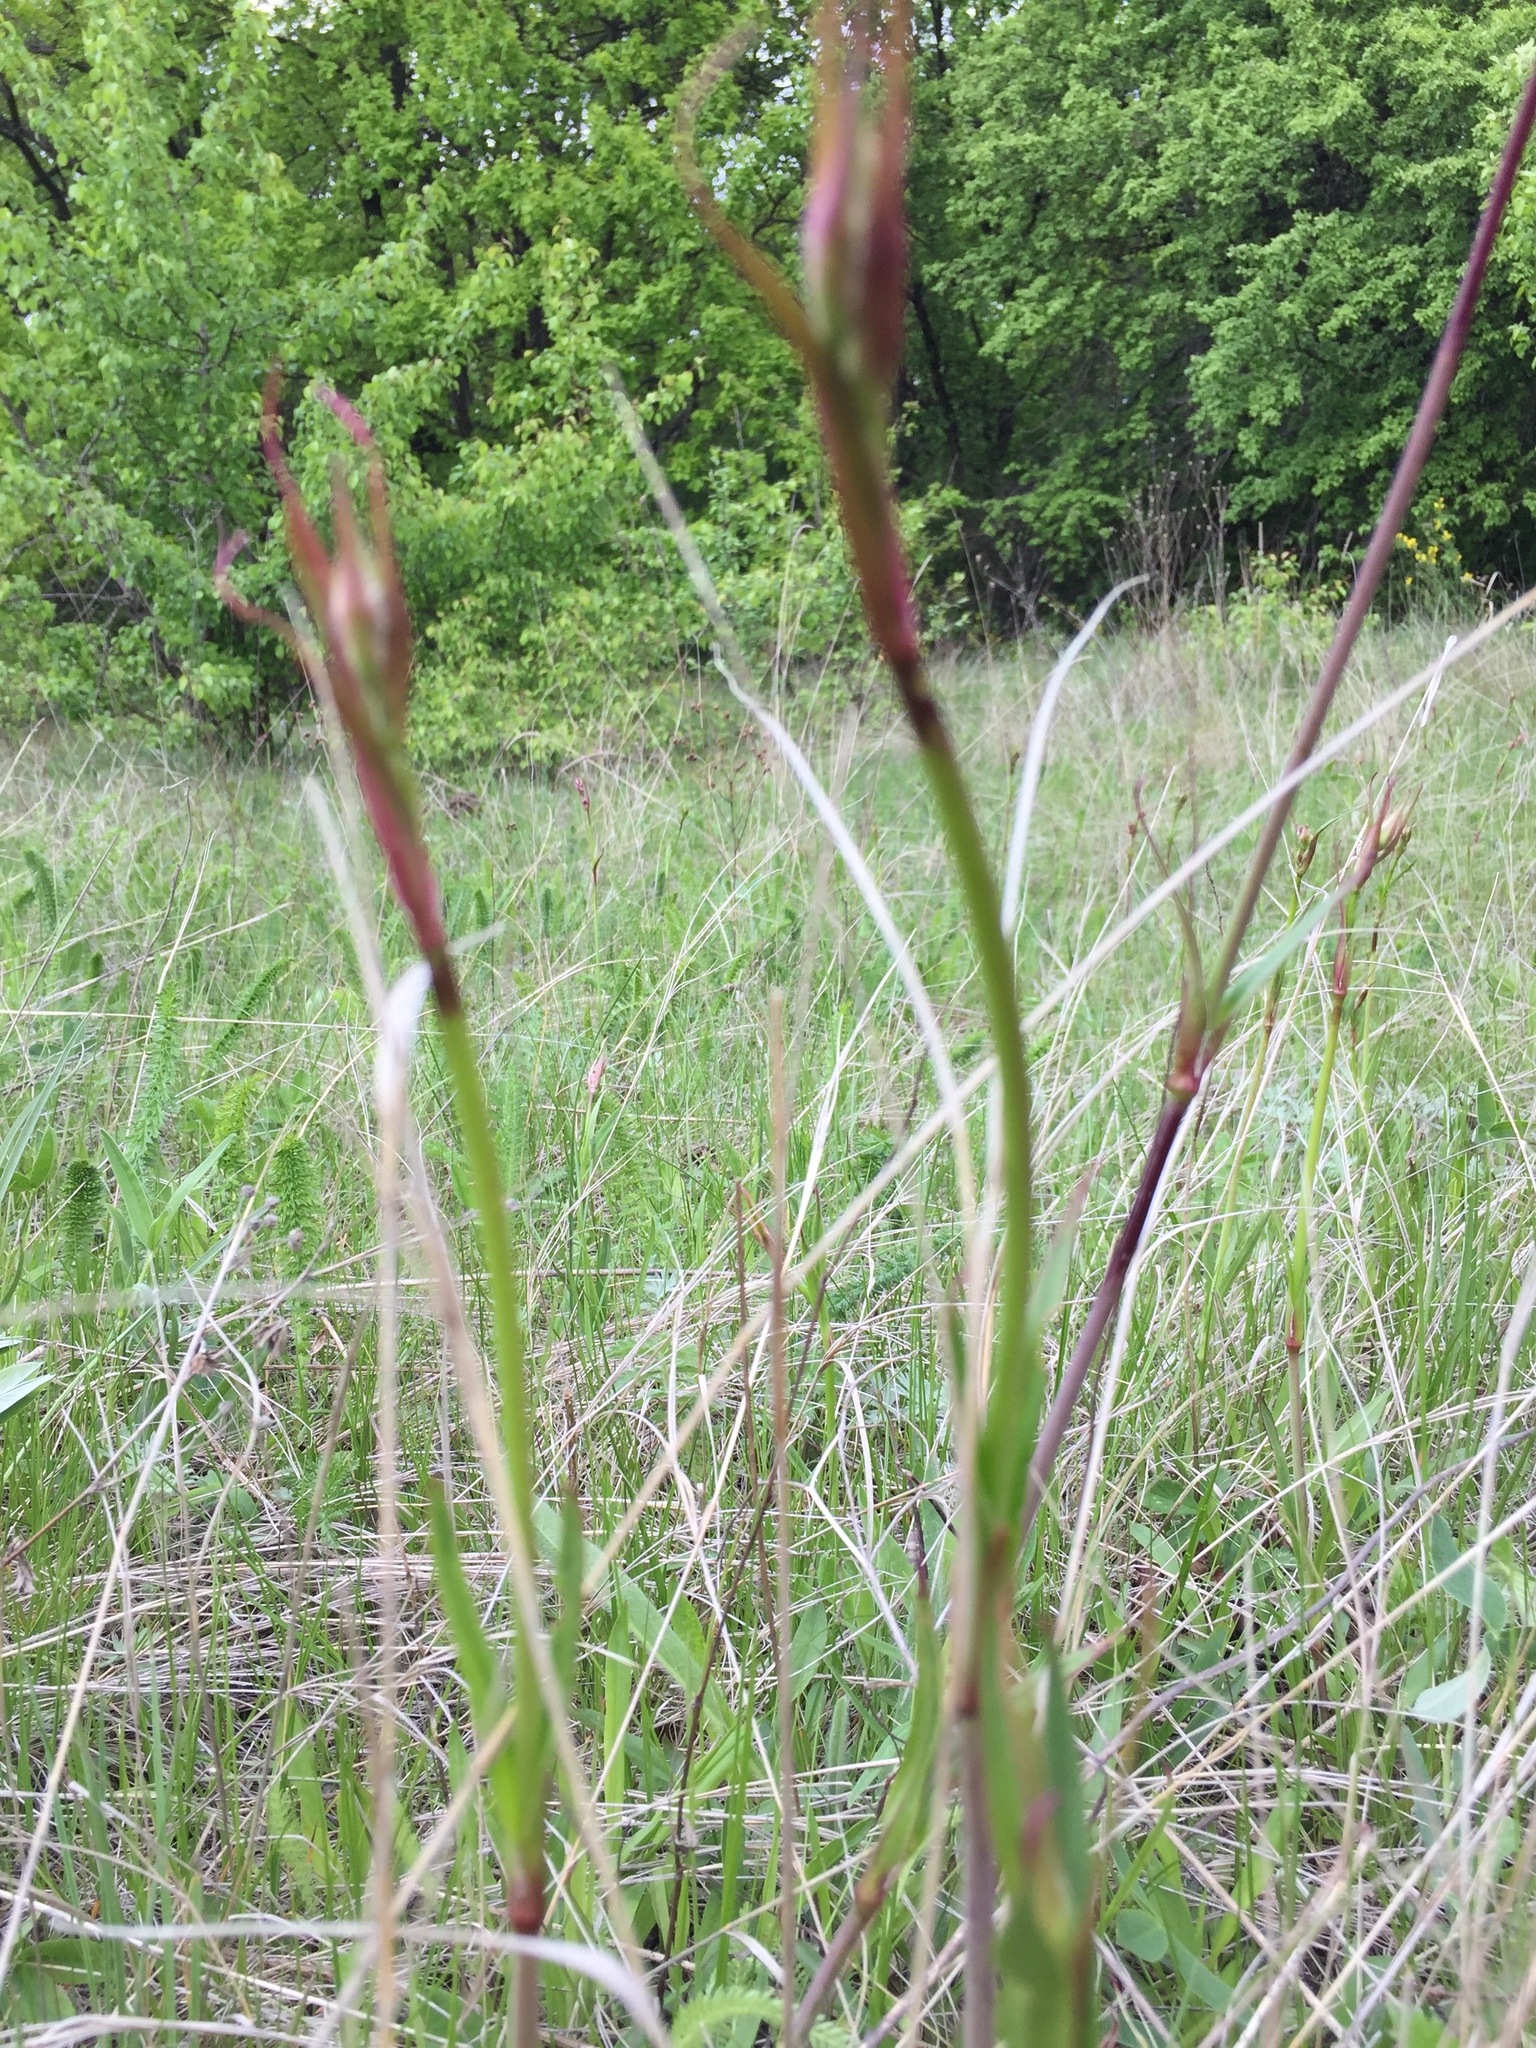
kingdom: Plantae
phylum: Tracheophyta
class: Magnoliopsida
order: Caryophyllales
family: Caryophyllaceae
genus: Viscaria
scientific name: Viscaria vulgaris
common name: Clammy campion
